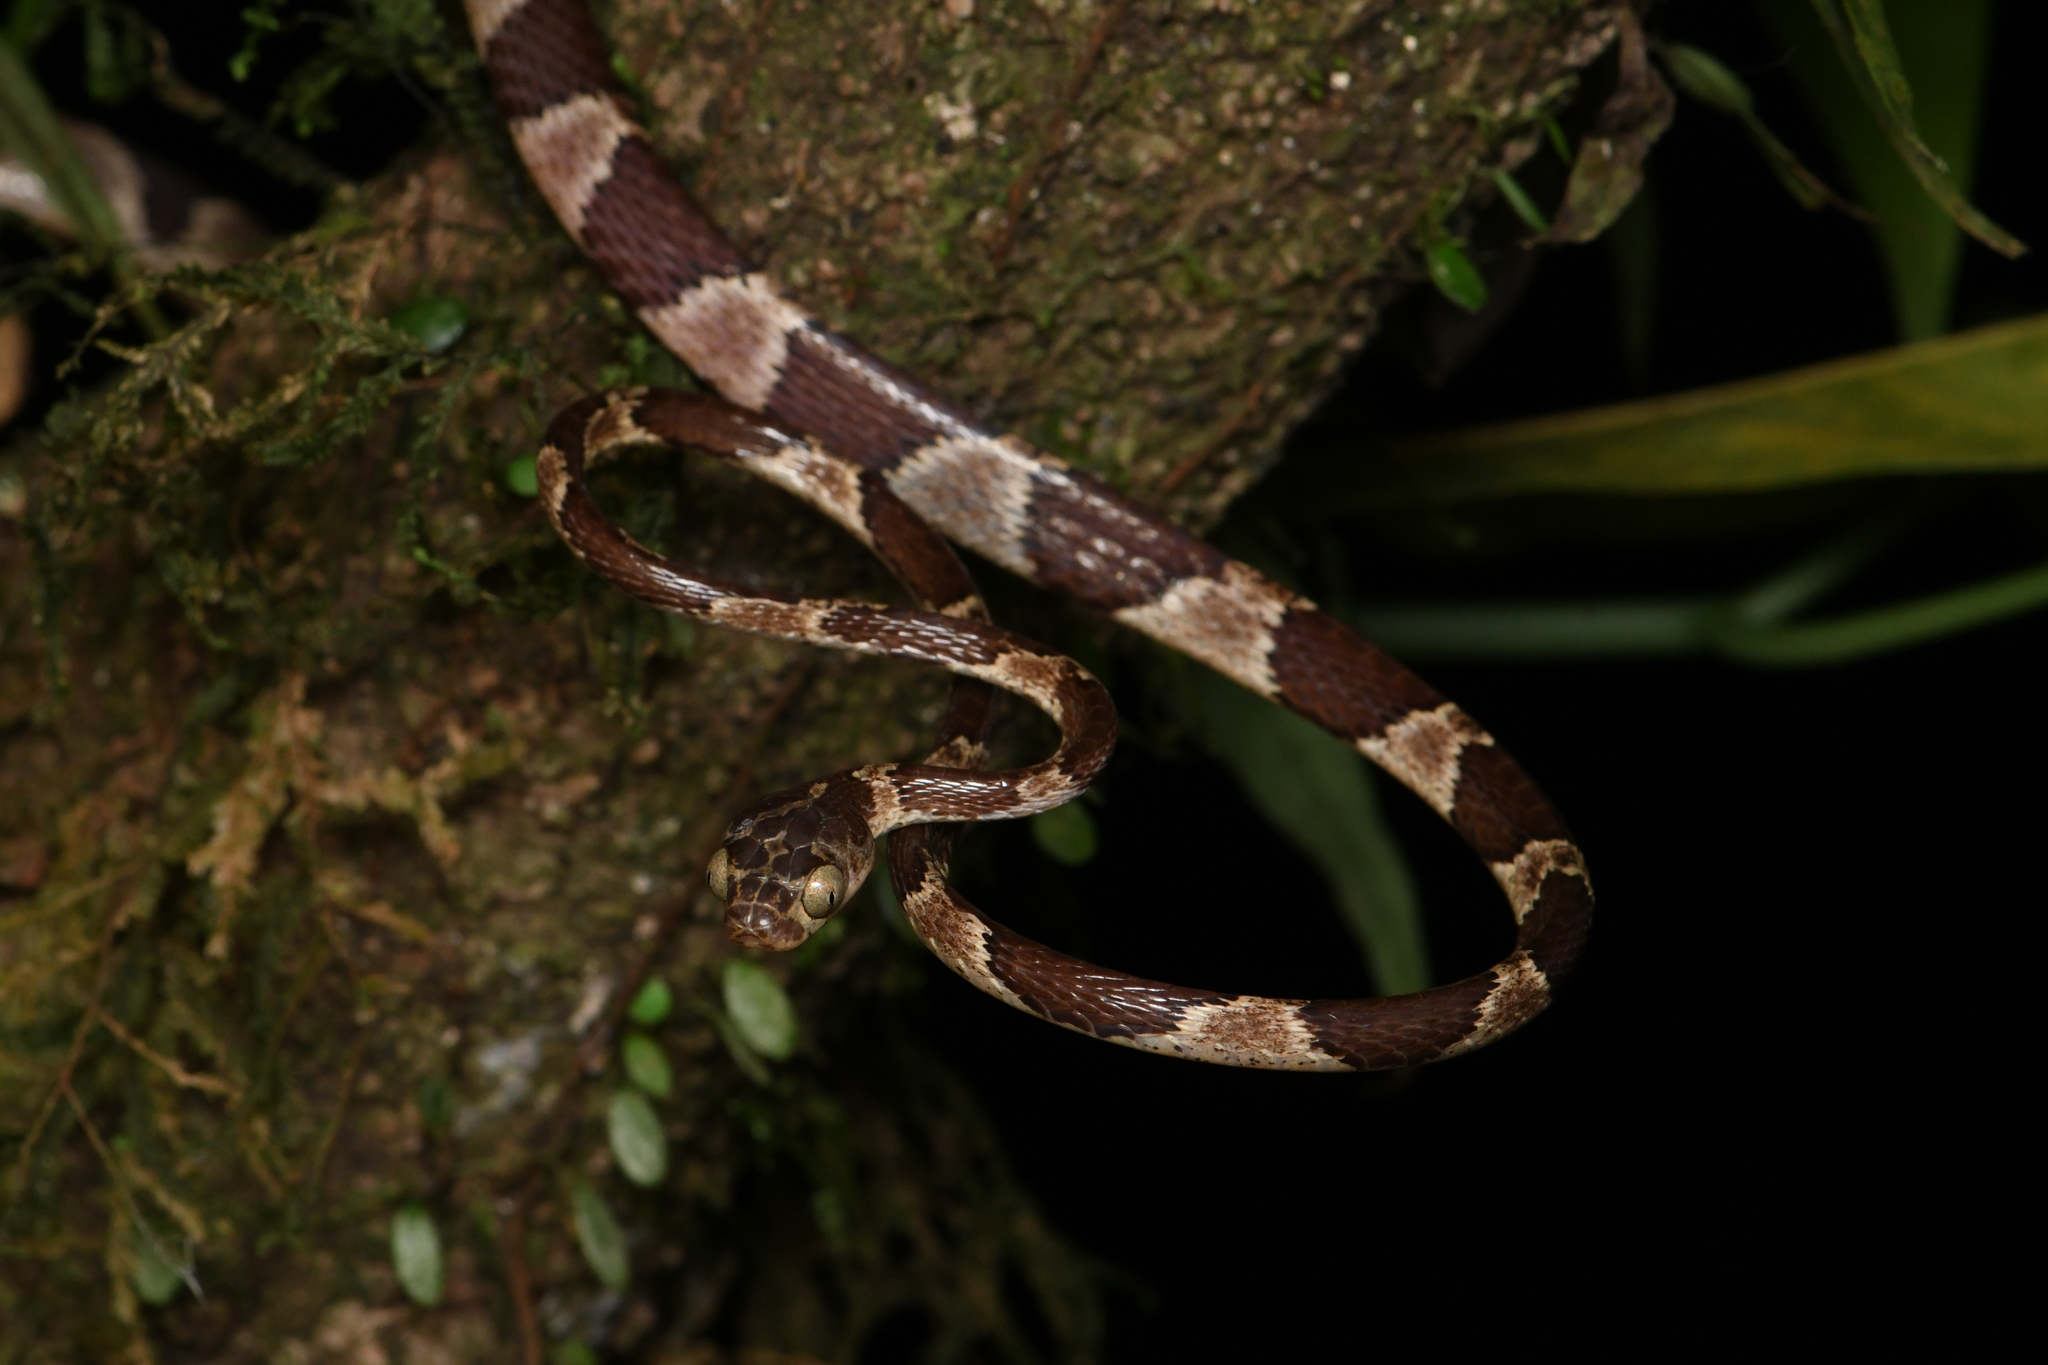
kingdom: Animalia
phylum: Chordata
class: Squamata
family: Colubridae
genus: Imantodes
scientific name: Imantodes cenchoa
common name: Blunthead tree snake
